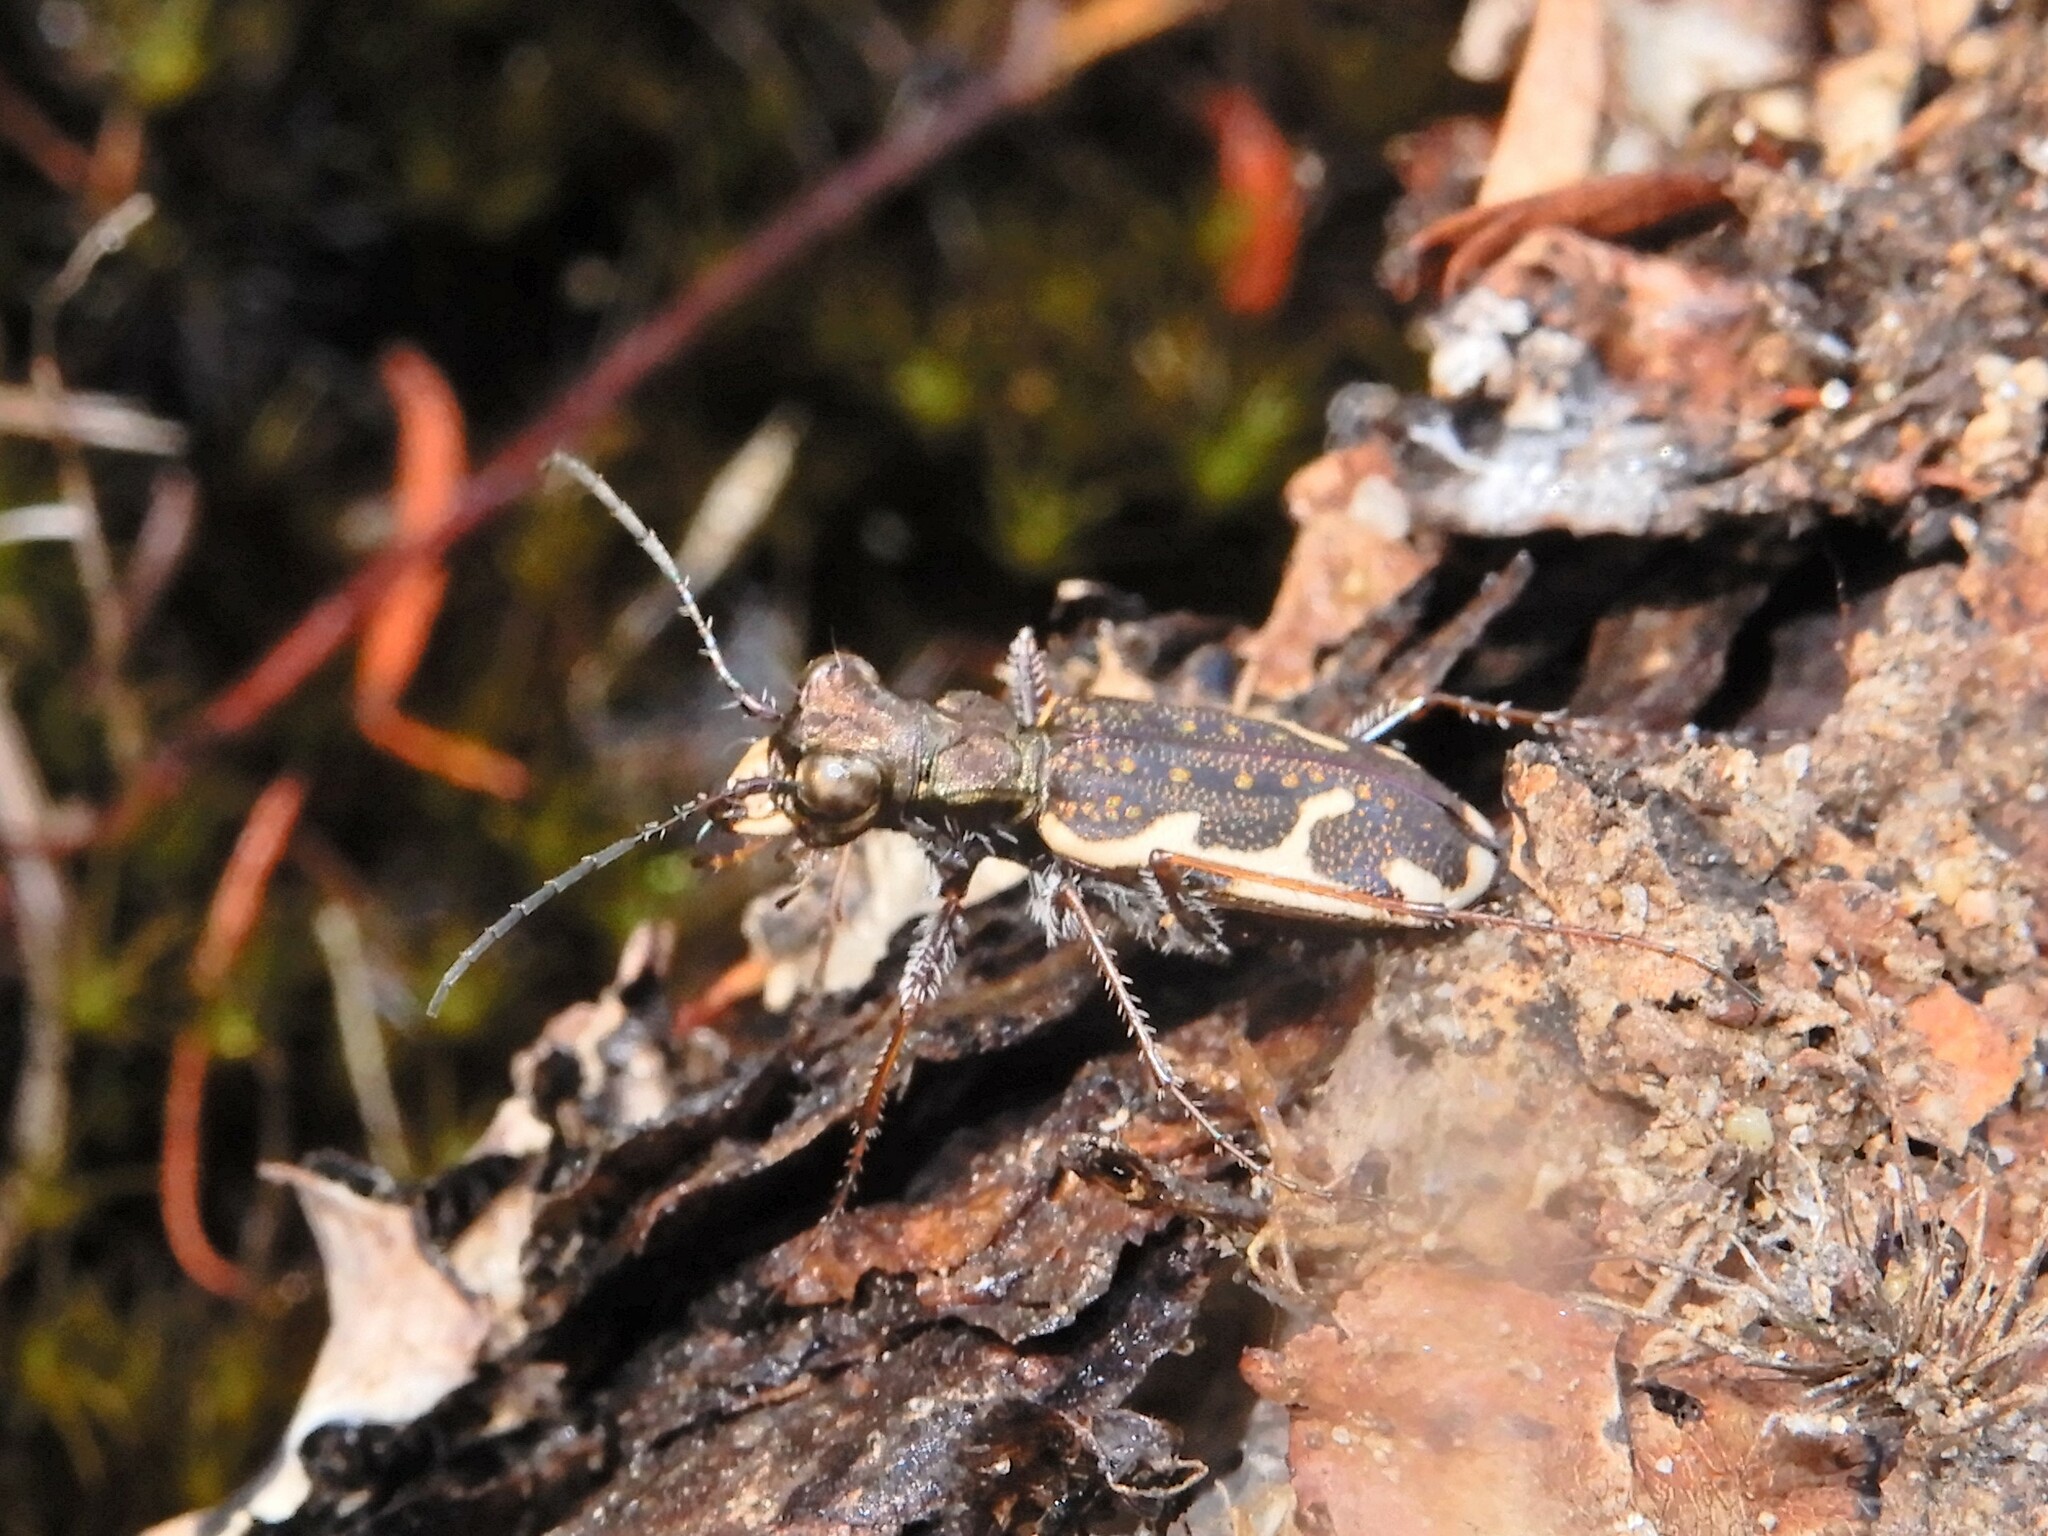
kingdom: Animalia
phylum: Arthropoda
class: Insecta
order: Coleoptera
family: Carabidae
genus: Neocicindela
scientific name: Neocicindela tuberculata
